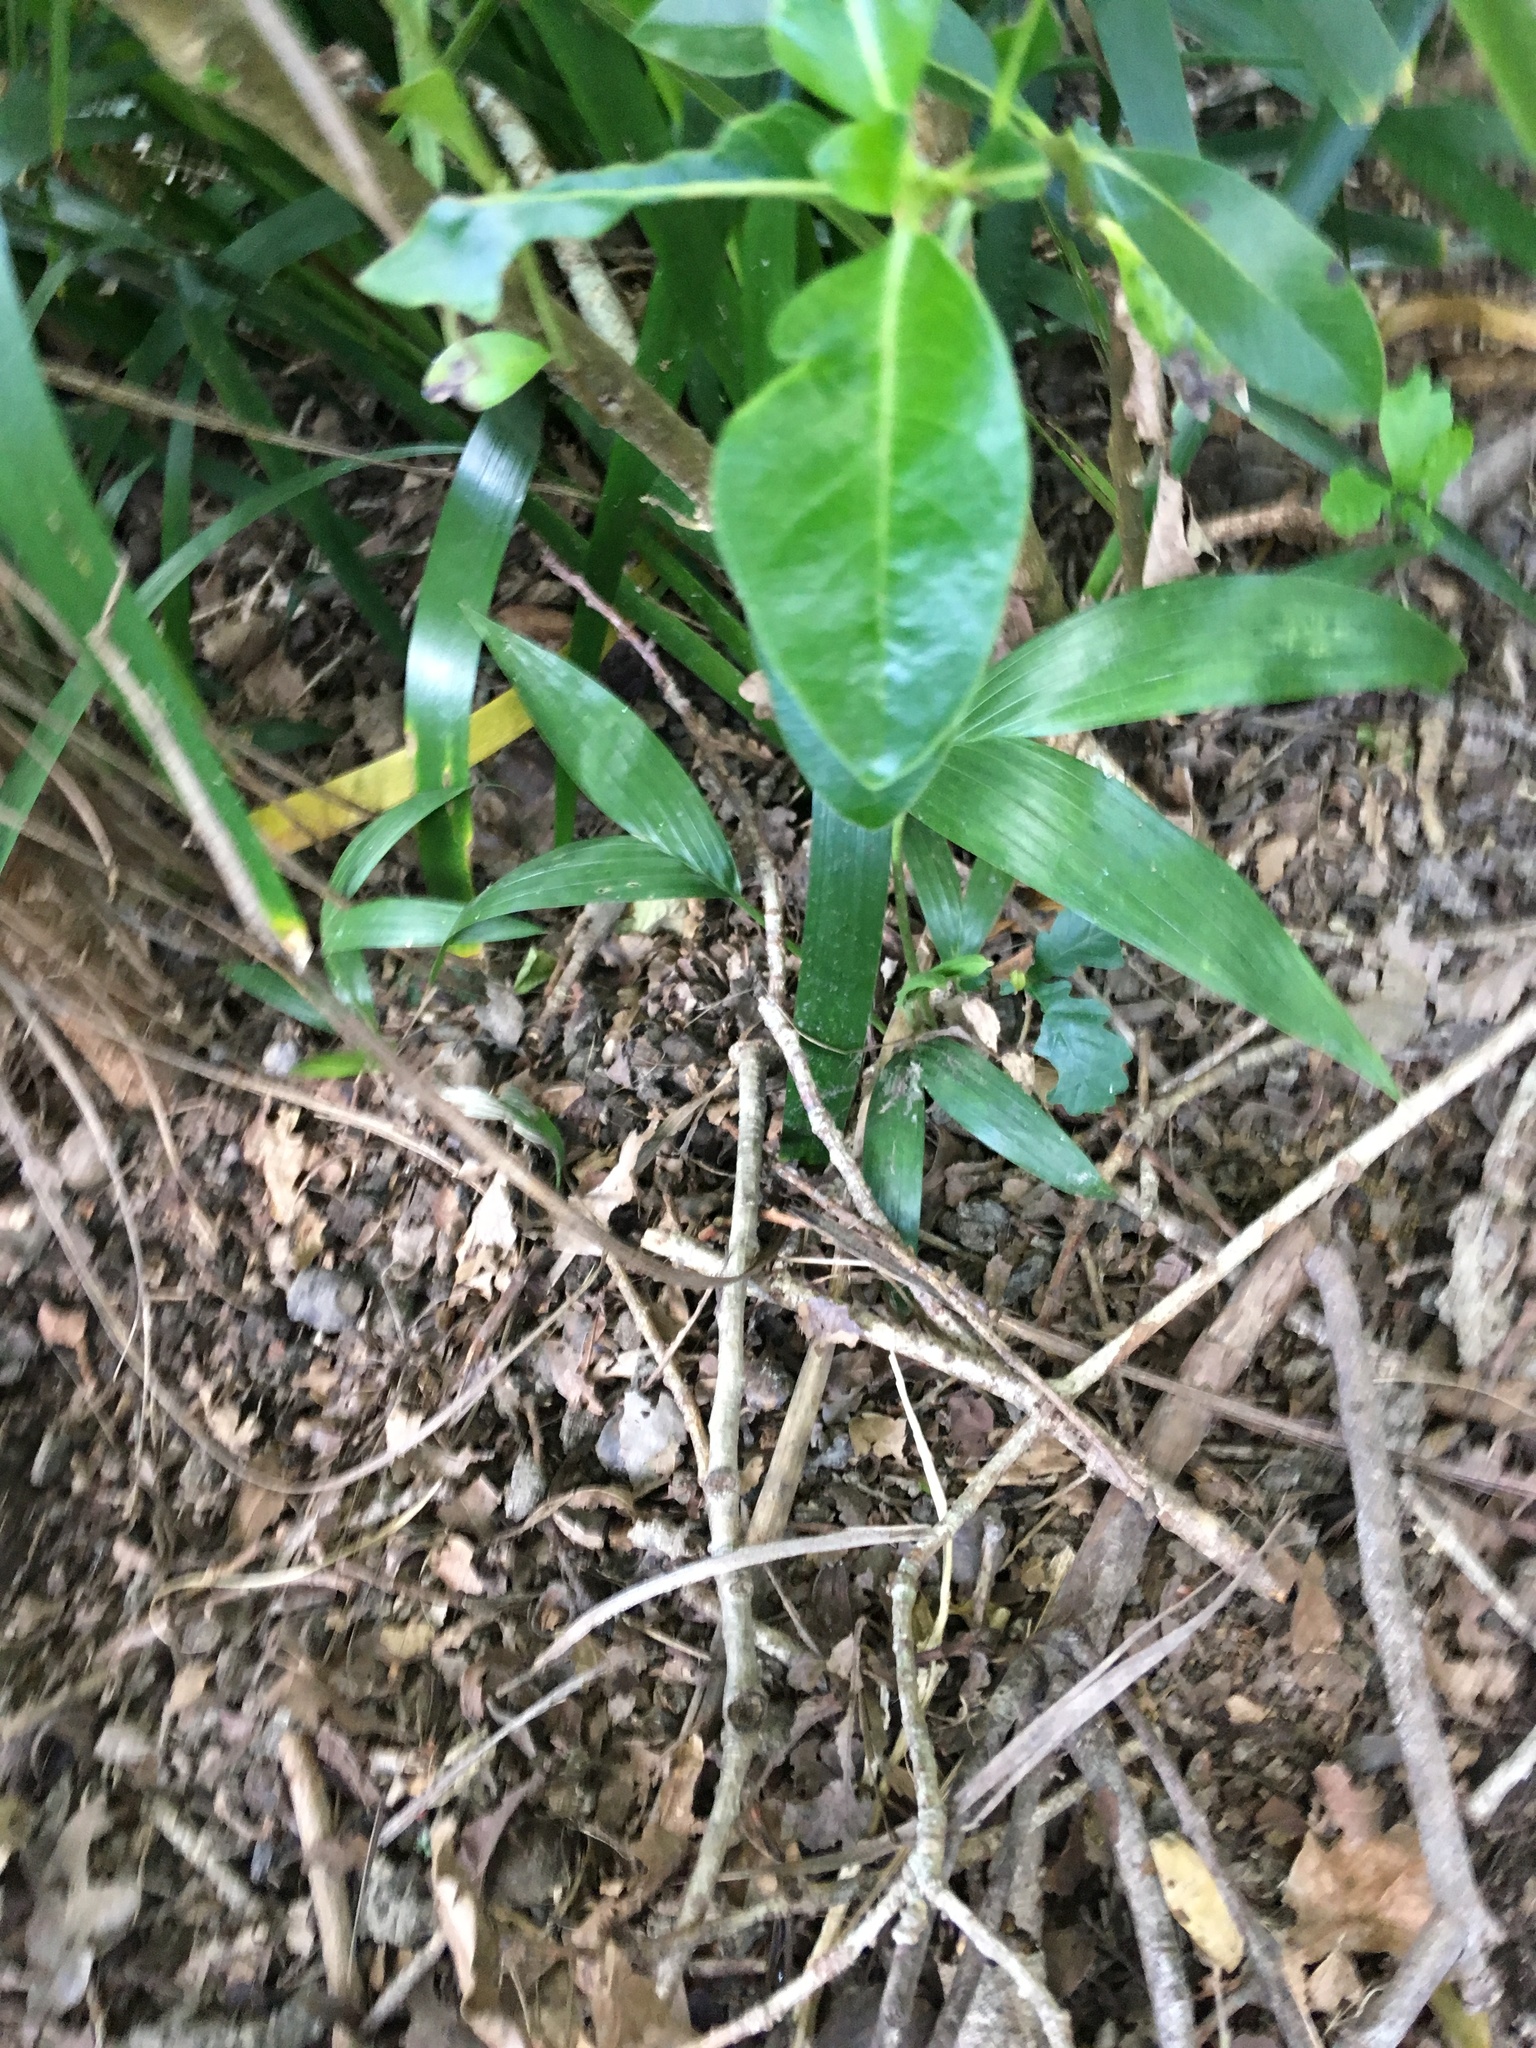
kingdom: Plantae
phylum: Tracheophyta
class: Liliopsida
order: Arecales
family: Arecaceae
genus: Archontophoenix
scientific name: Archontophoenix cunninghamiana
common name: Piccabeen bangalow palm
